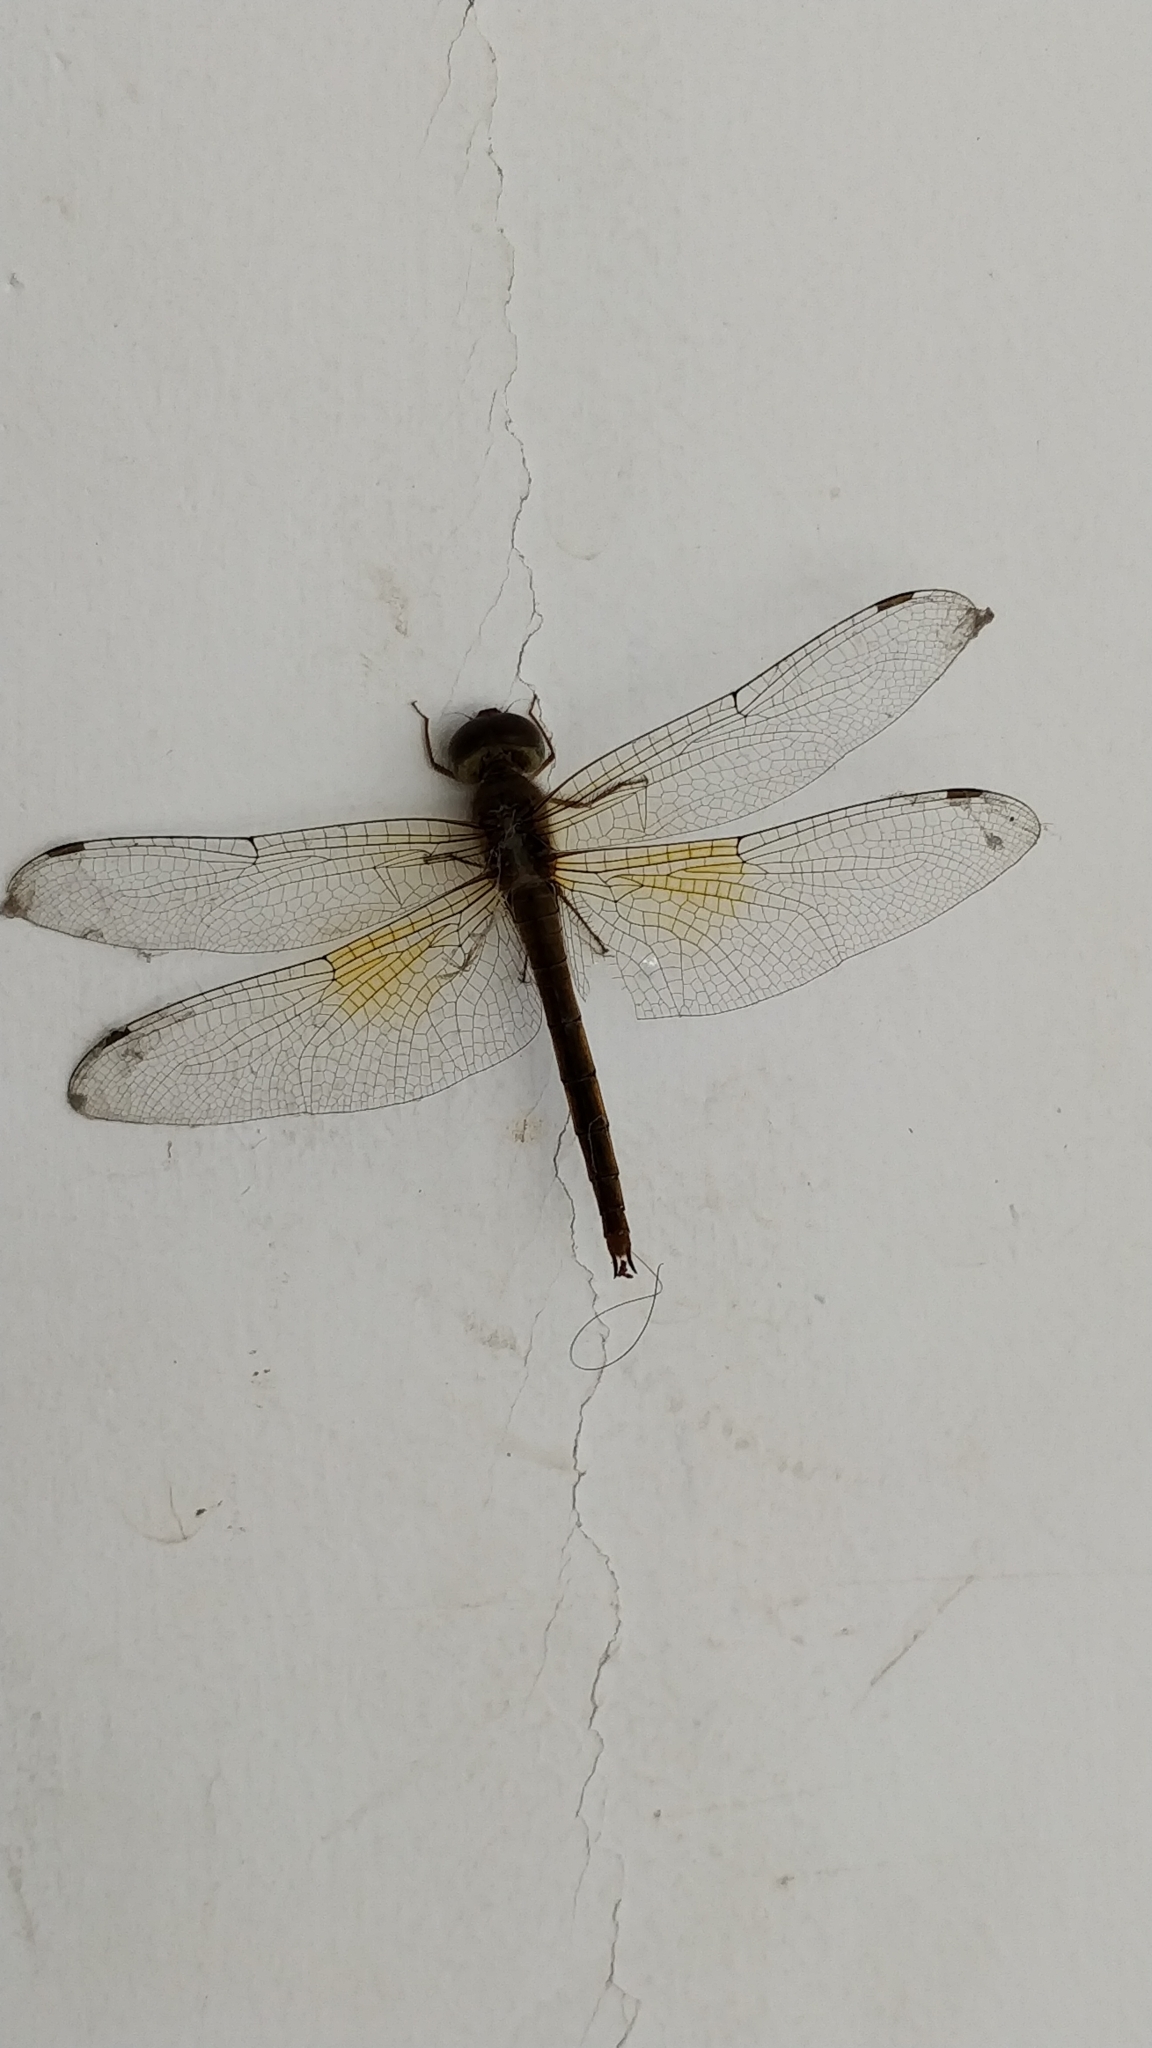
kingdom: Animalia
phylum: Arthropoda
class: Insecta
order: Odonata
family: Libellulidae
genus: Tholymis
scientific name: Tholymis tillarga
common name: Coral-tailed cloud wing
